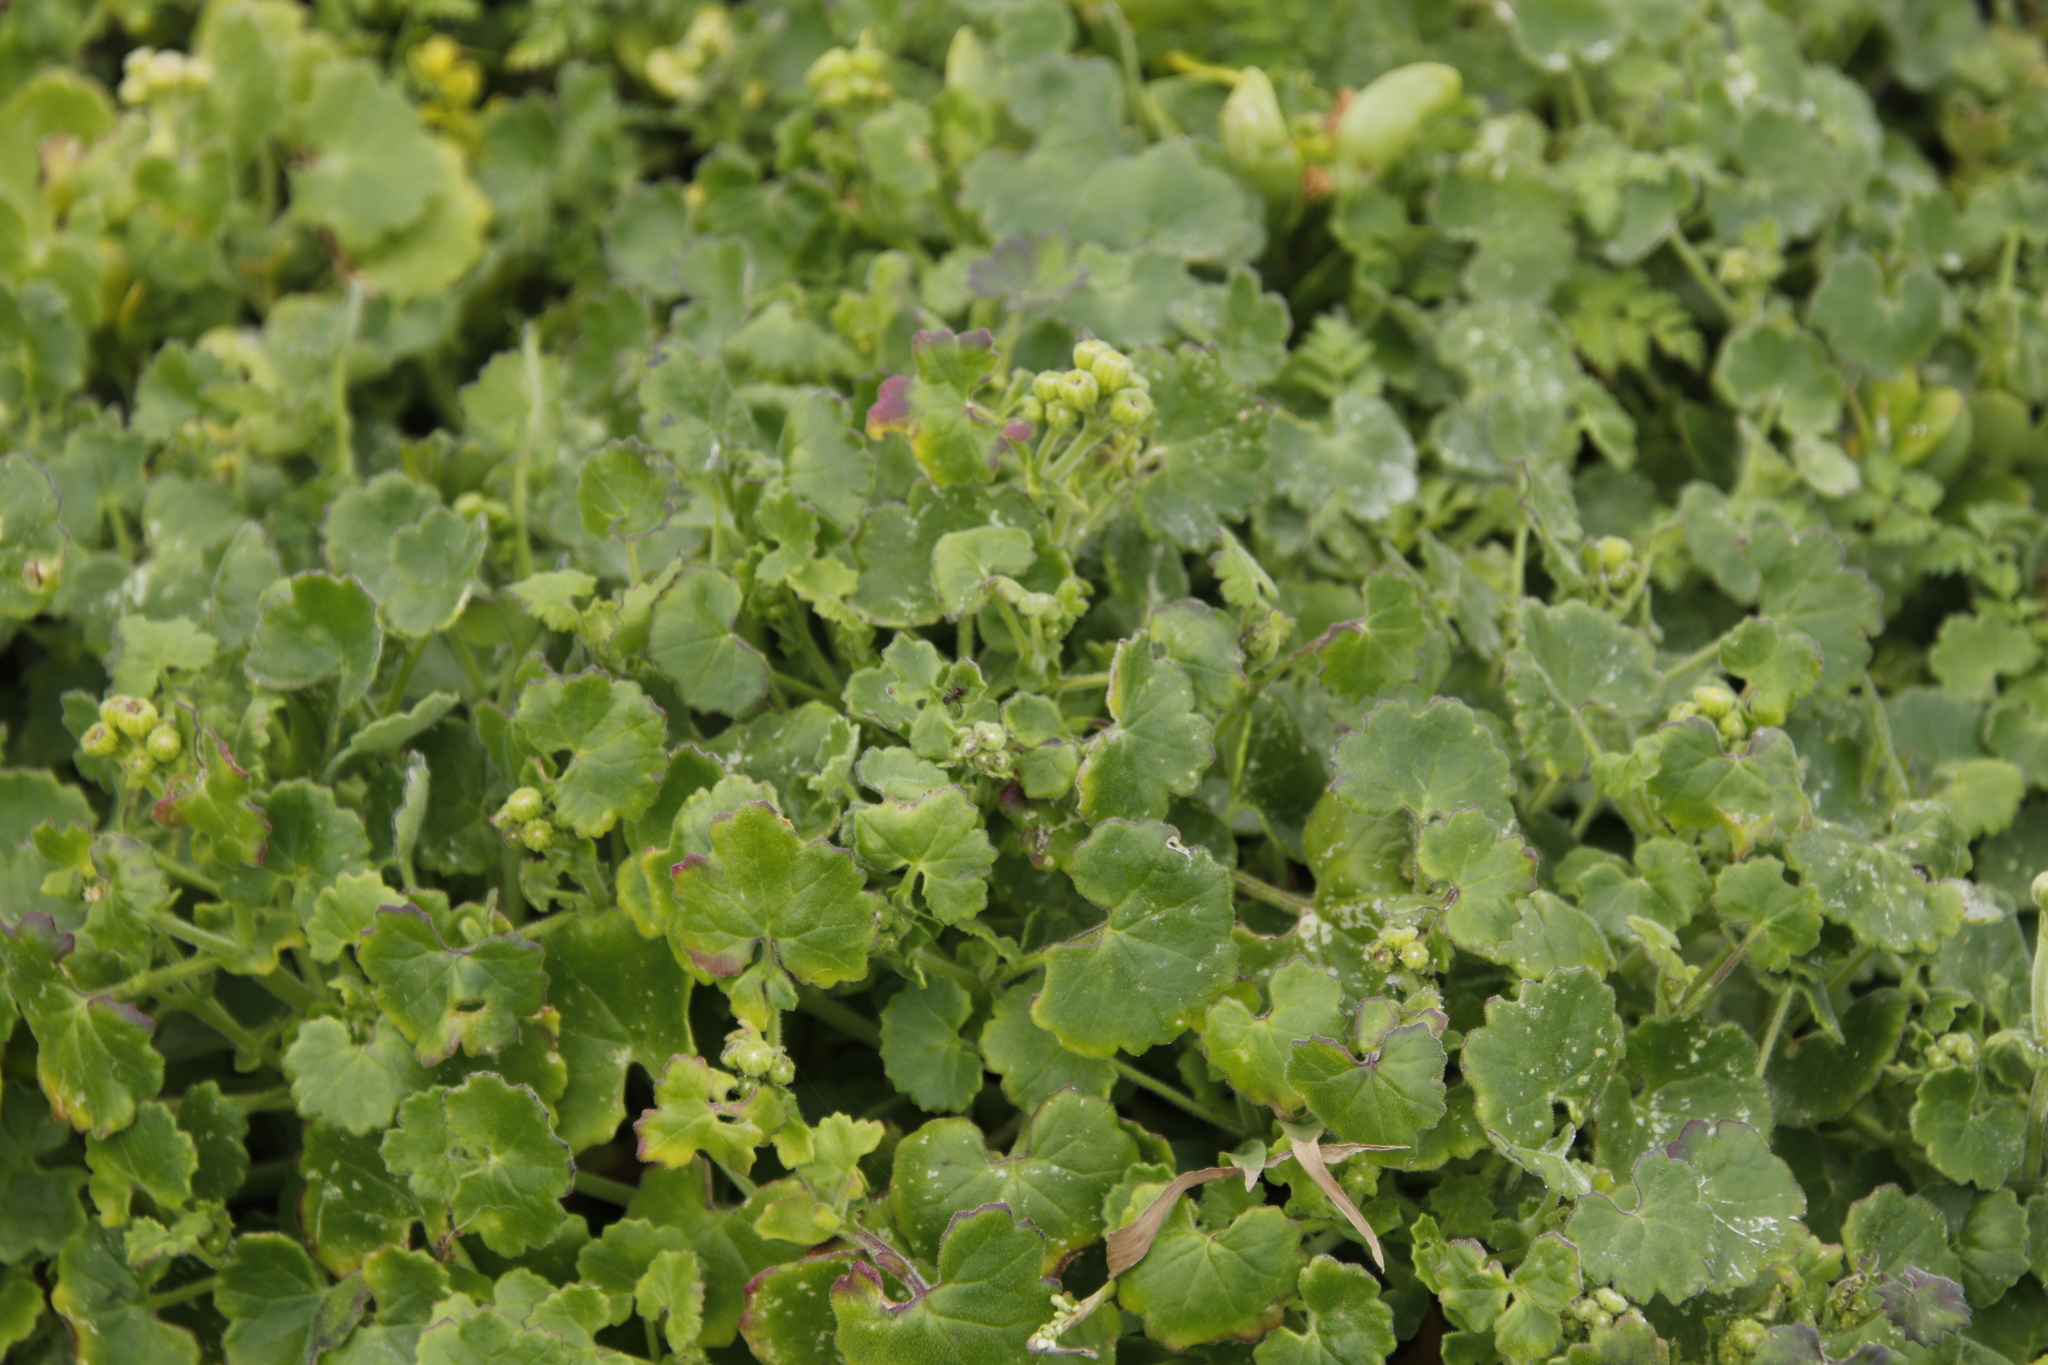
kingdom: Plantae
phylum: Tracheophyta
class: Magnoliopsida
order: Asterales
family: Asteraceae
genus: Cineraria
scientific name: Cineraria geifolia
